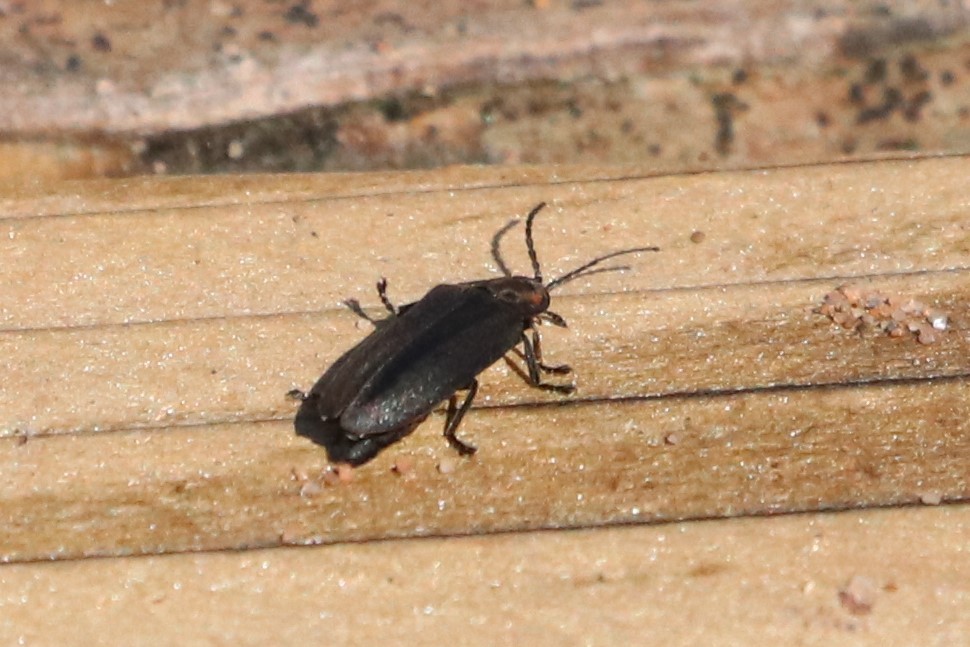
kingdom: Animalia
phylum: Arthropoda
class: Insecta
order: Coleoptera
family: Lampyridae
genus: Photinus
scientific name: Photinus corrusca
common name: Winter firefly
